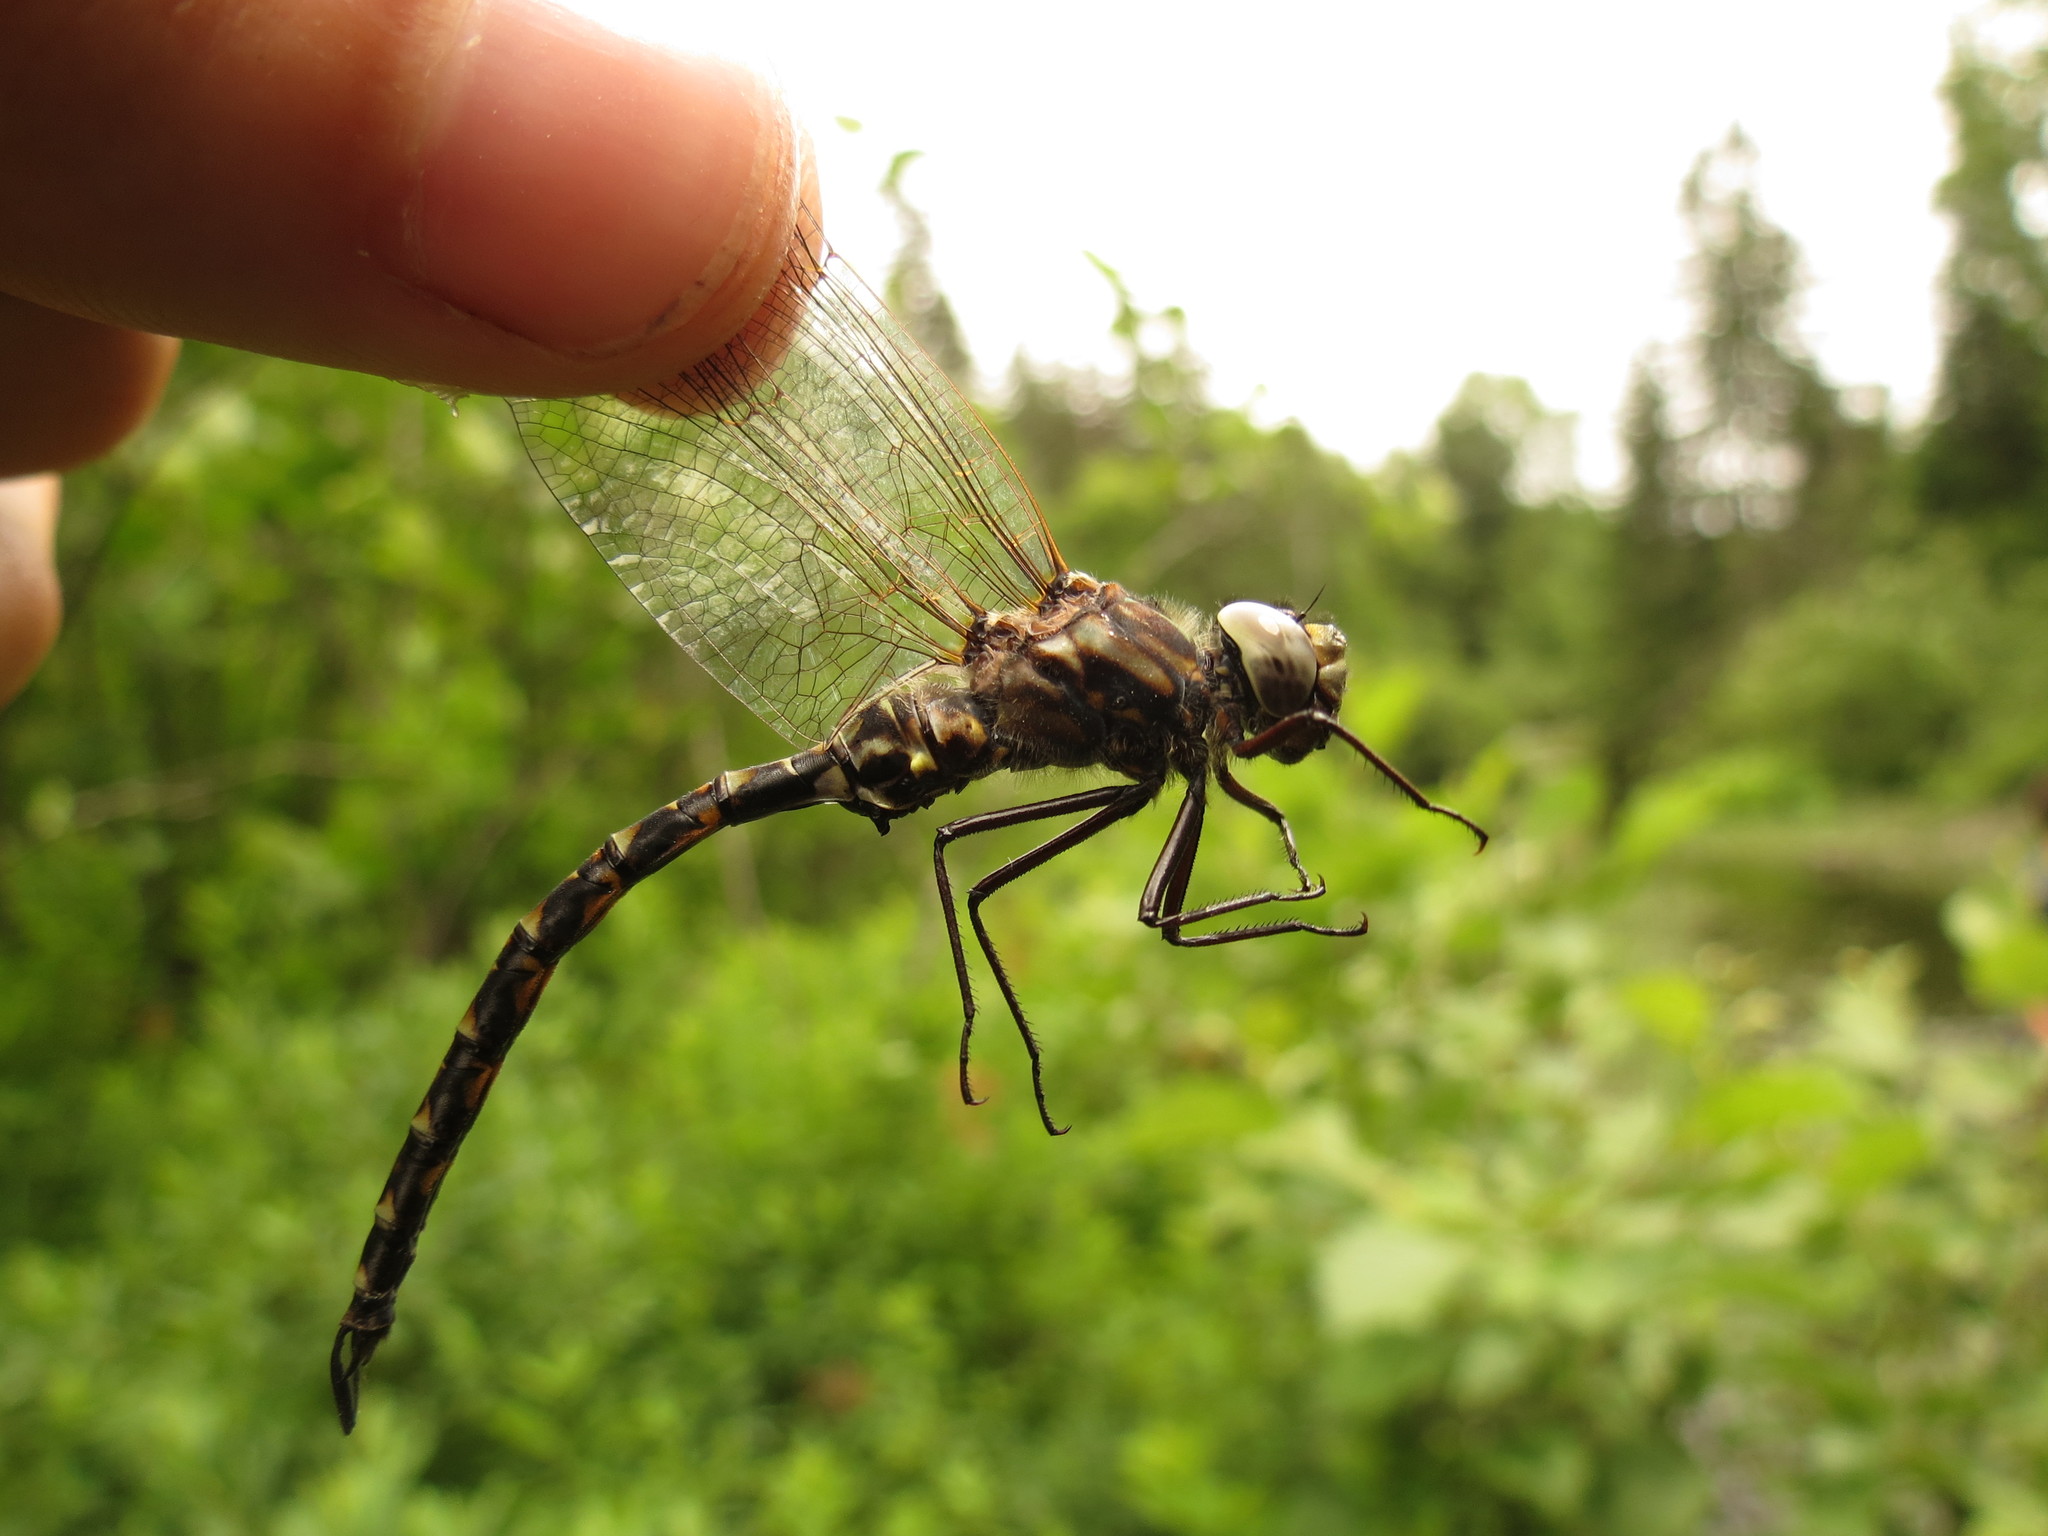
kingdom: Animalia
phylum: Arthropoda
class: Insecta
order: Odonata
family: Aeshnidae
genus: Gomphaeschna
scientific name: Gomphaeschna furcillata
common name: Harlequin darner
